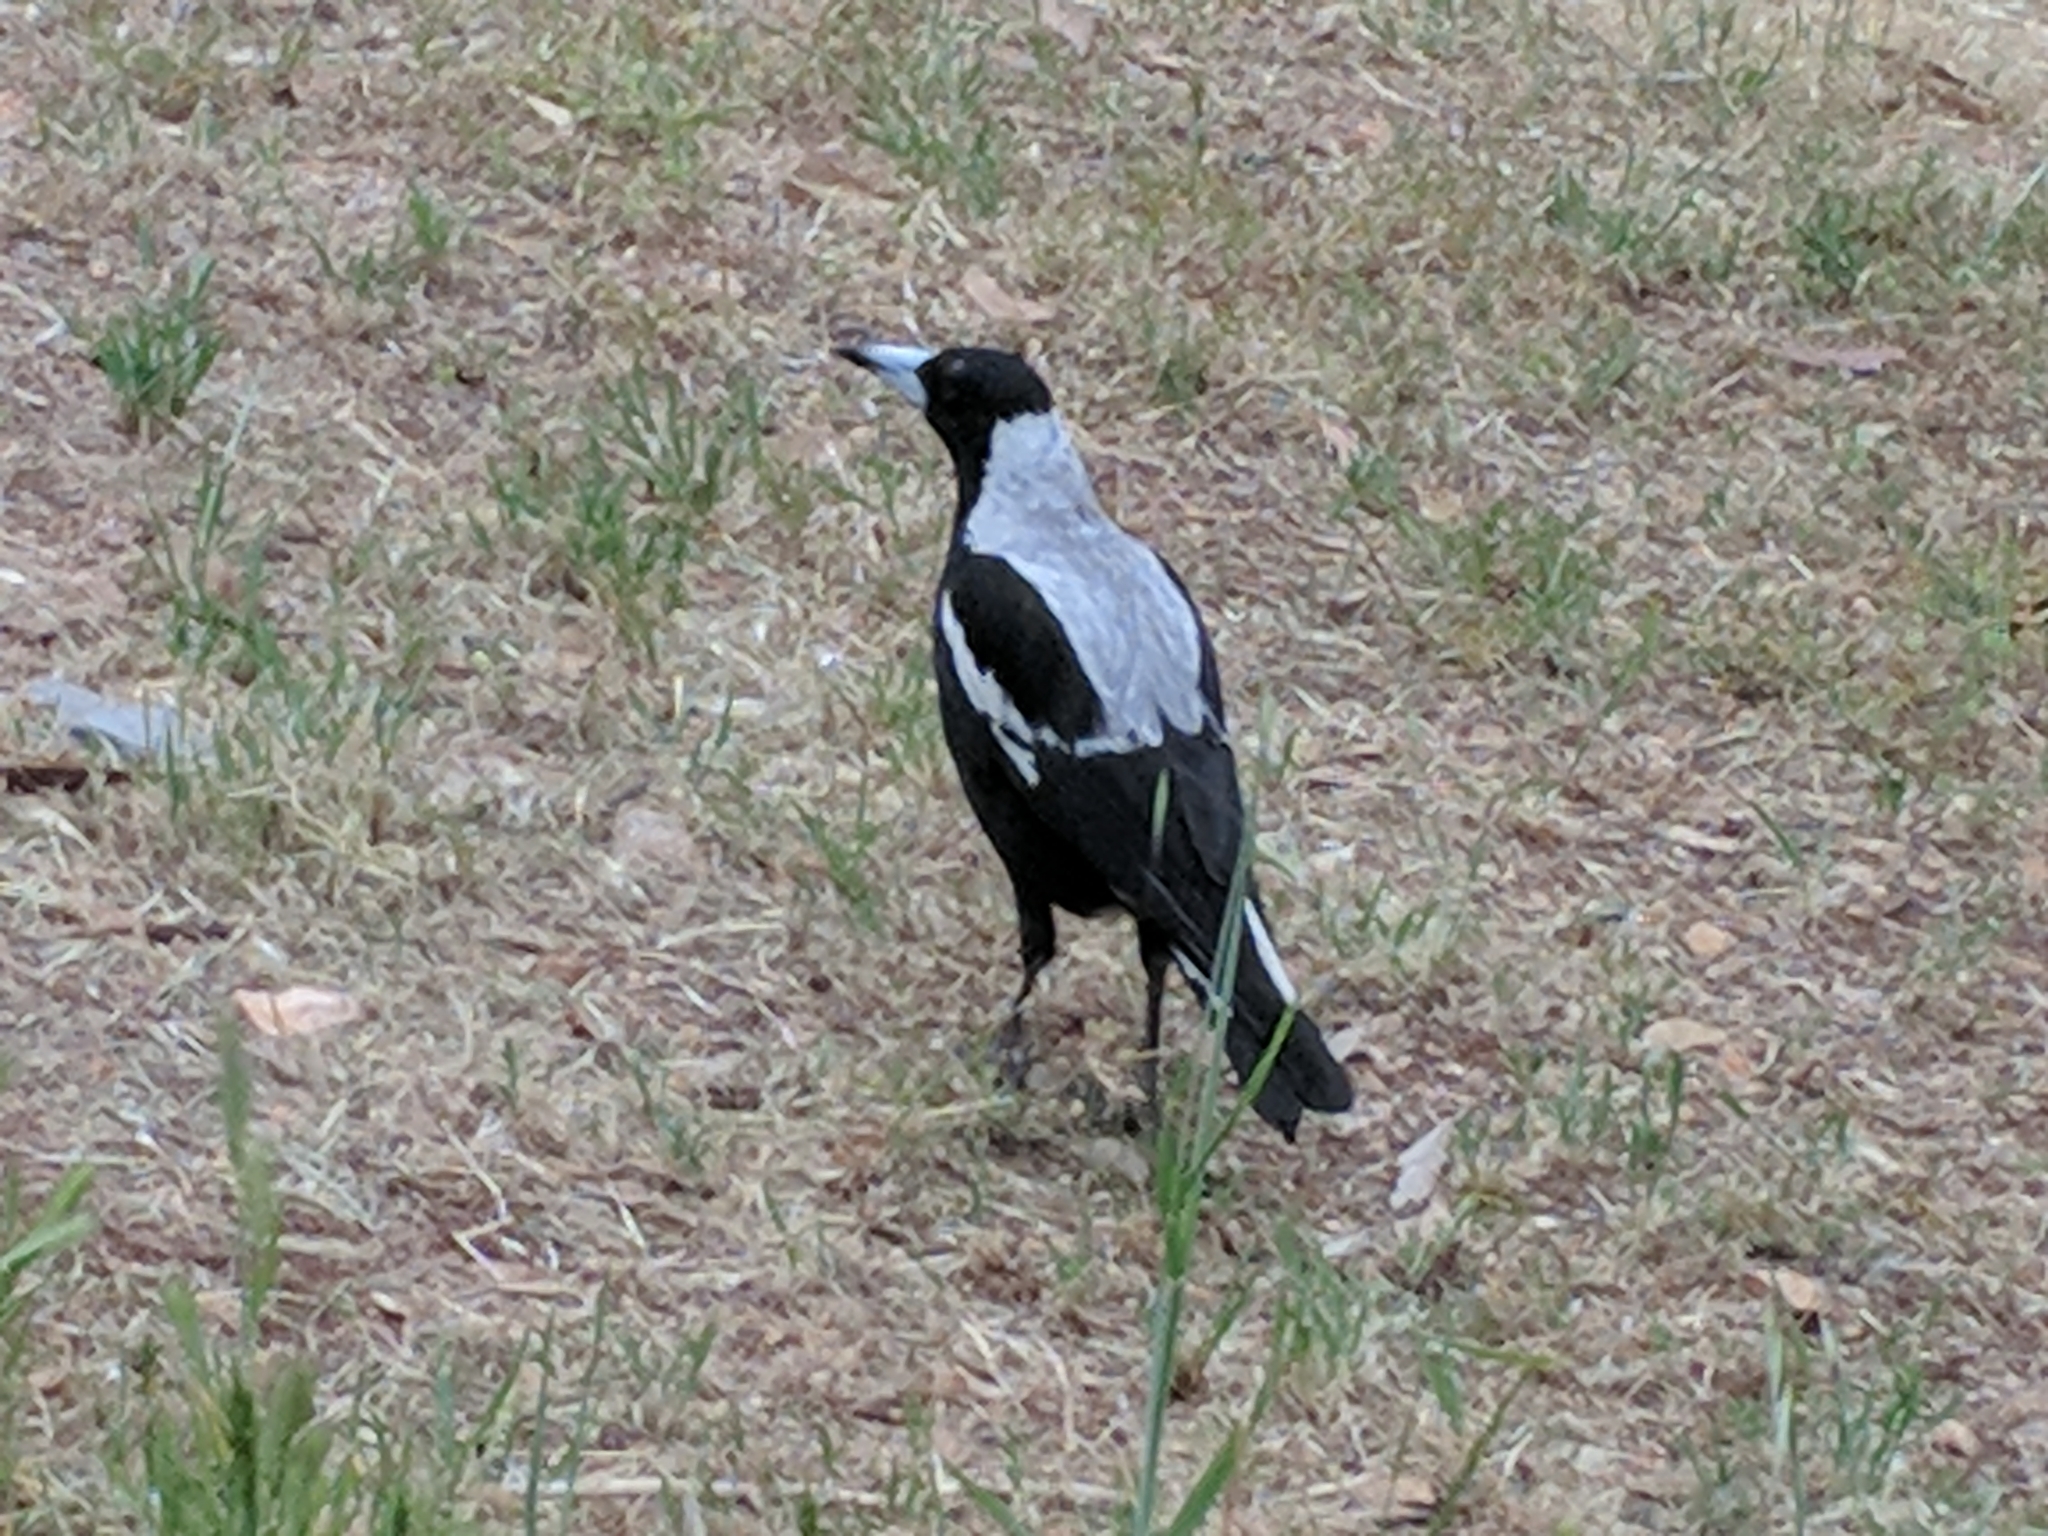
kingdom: Animalia
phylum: Chordata
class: Aves
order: Passeriformes
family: Cracticidae
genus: Gymnorhina
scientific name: Gymnorhina tibicen
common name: Australian magpie
